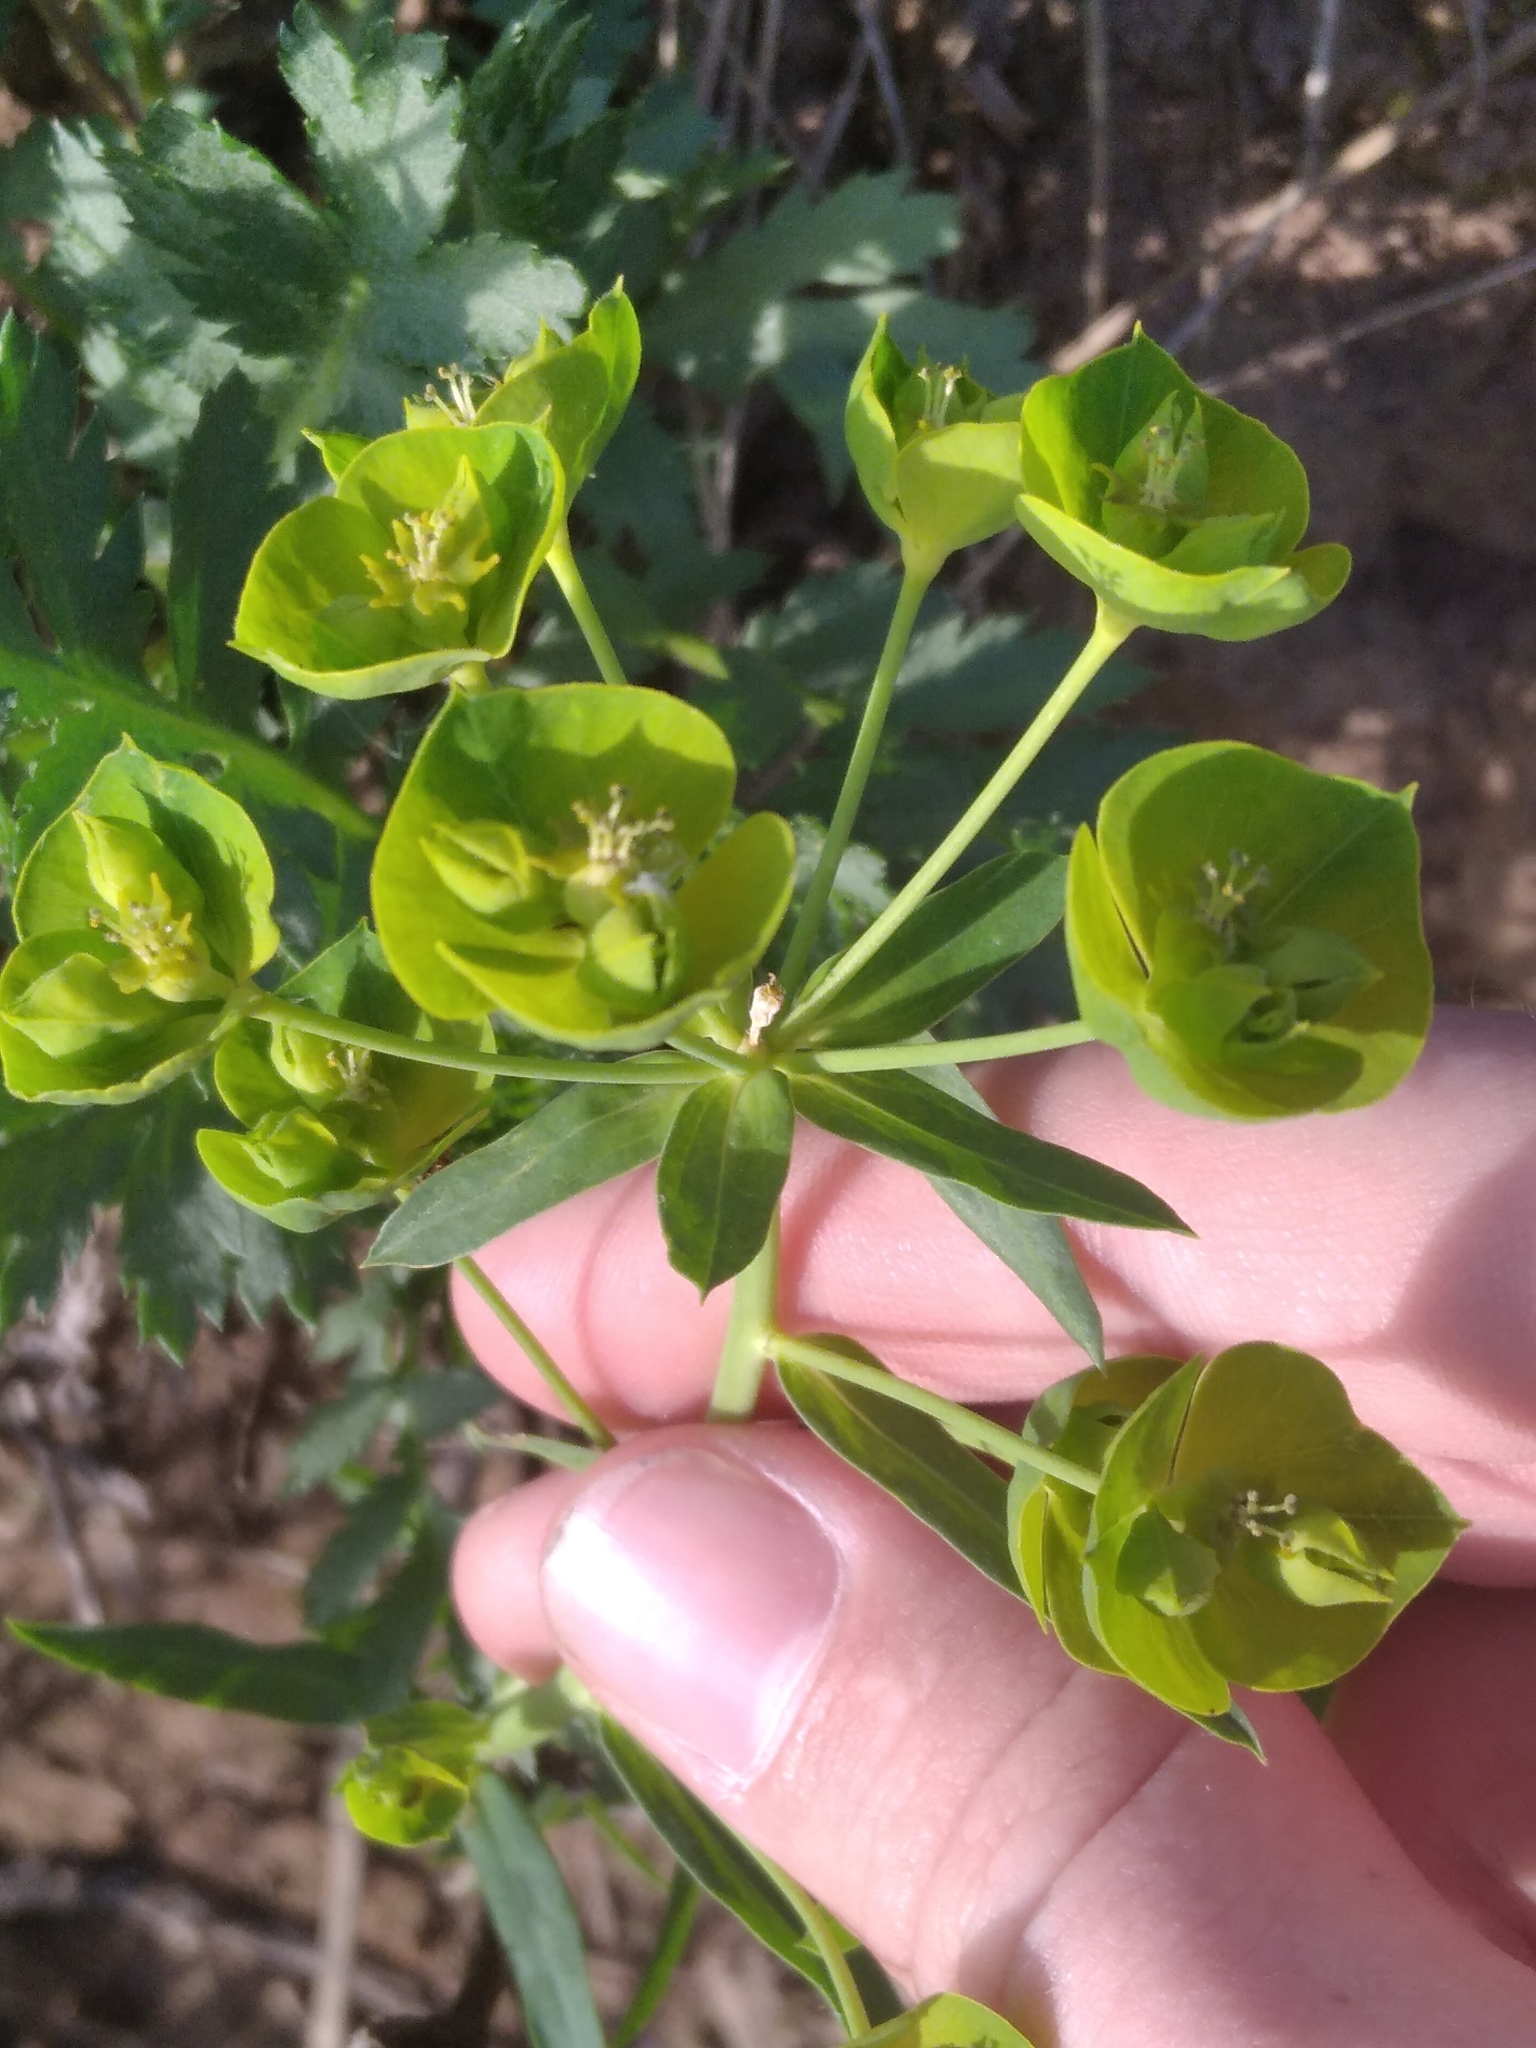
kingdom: Plantae
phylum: Tracheophyta
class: Magnoliopsida
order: Malpighiales
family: Euphorbiaceae
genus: Euphorbia
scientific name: Euphorbia virgata
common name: Leafy spurge
